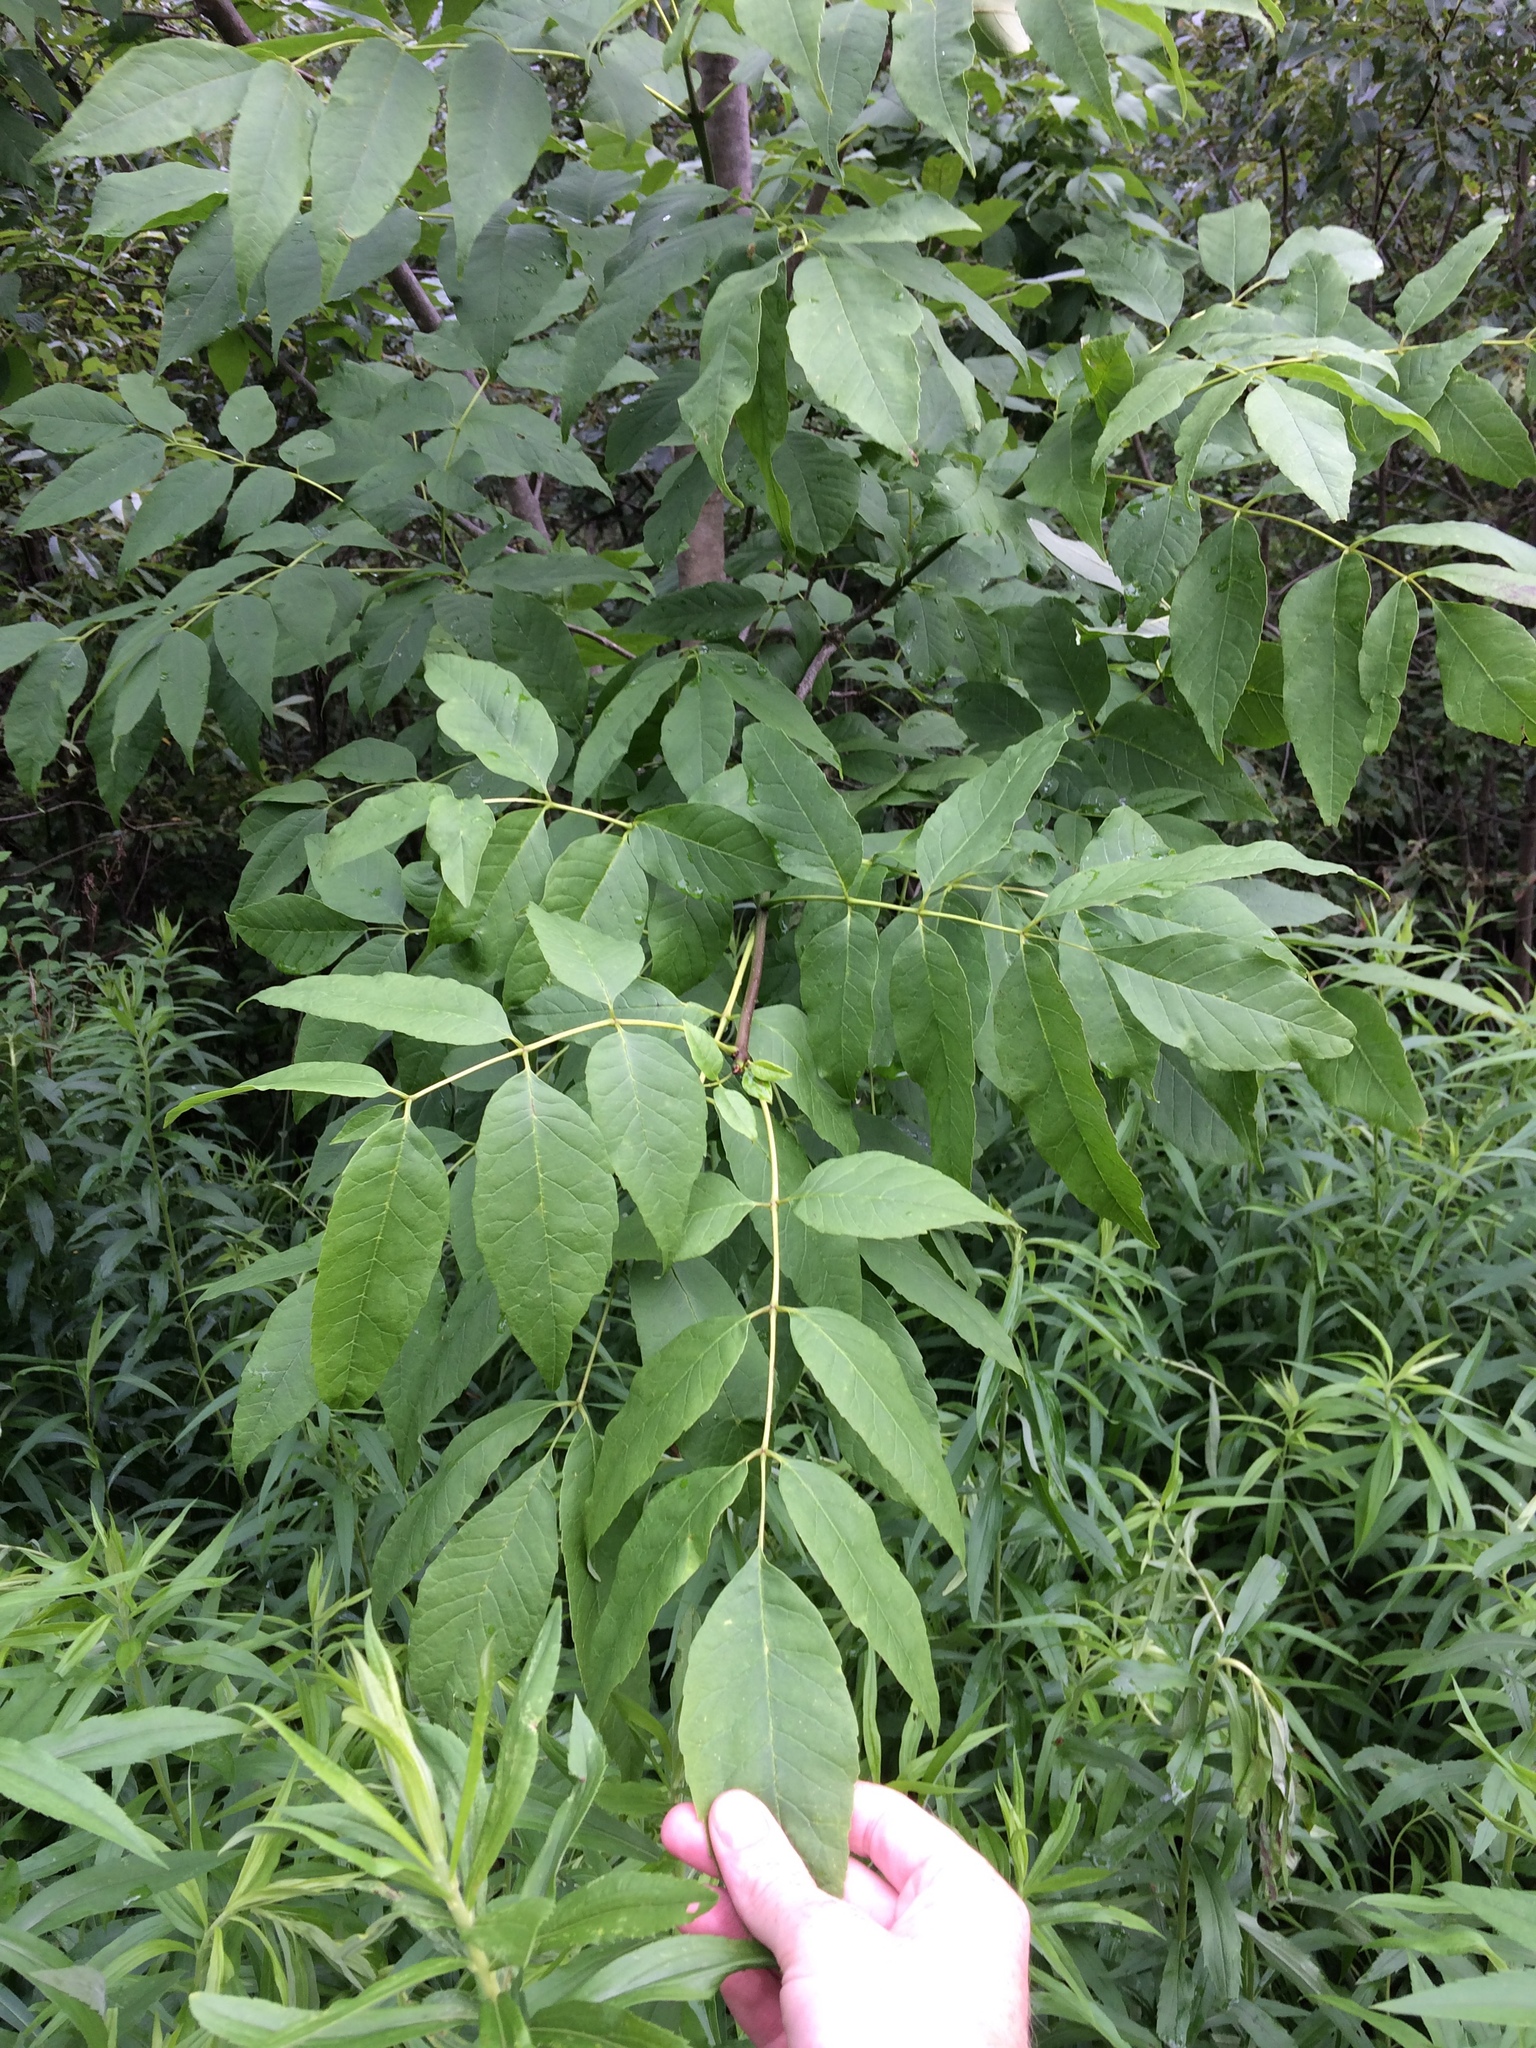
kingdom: Plantae
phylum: Tracheophyta
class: Magnoliopsida
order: Lamiales
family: Oleaceae
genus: Fraxinus
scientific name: Fraxinus pennsylvanica
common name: Green ash
